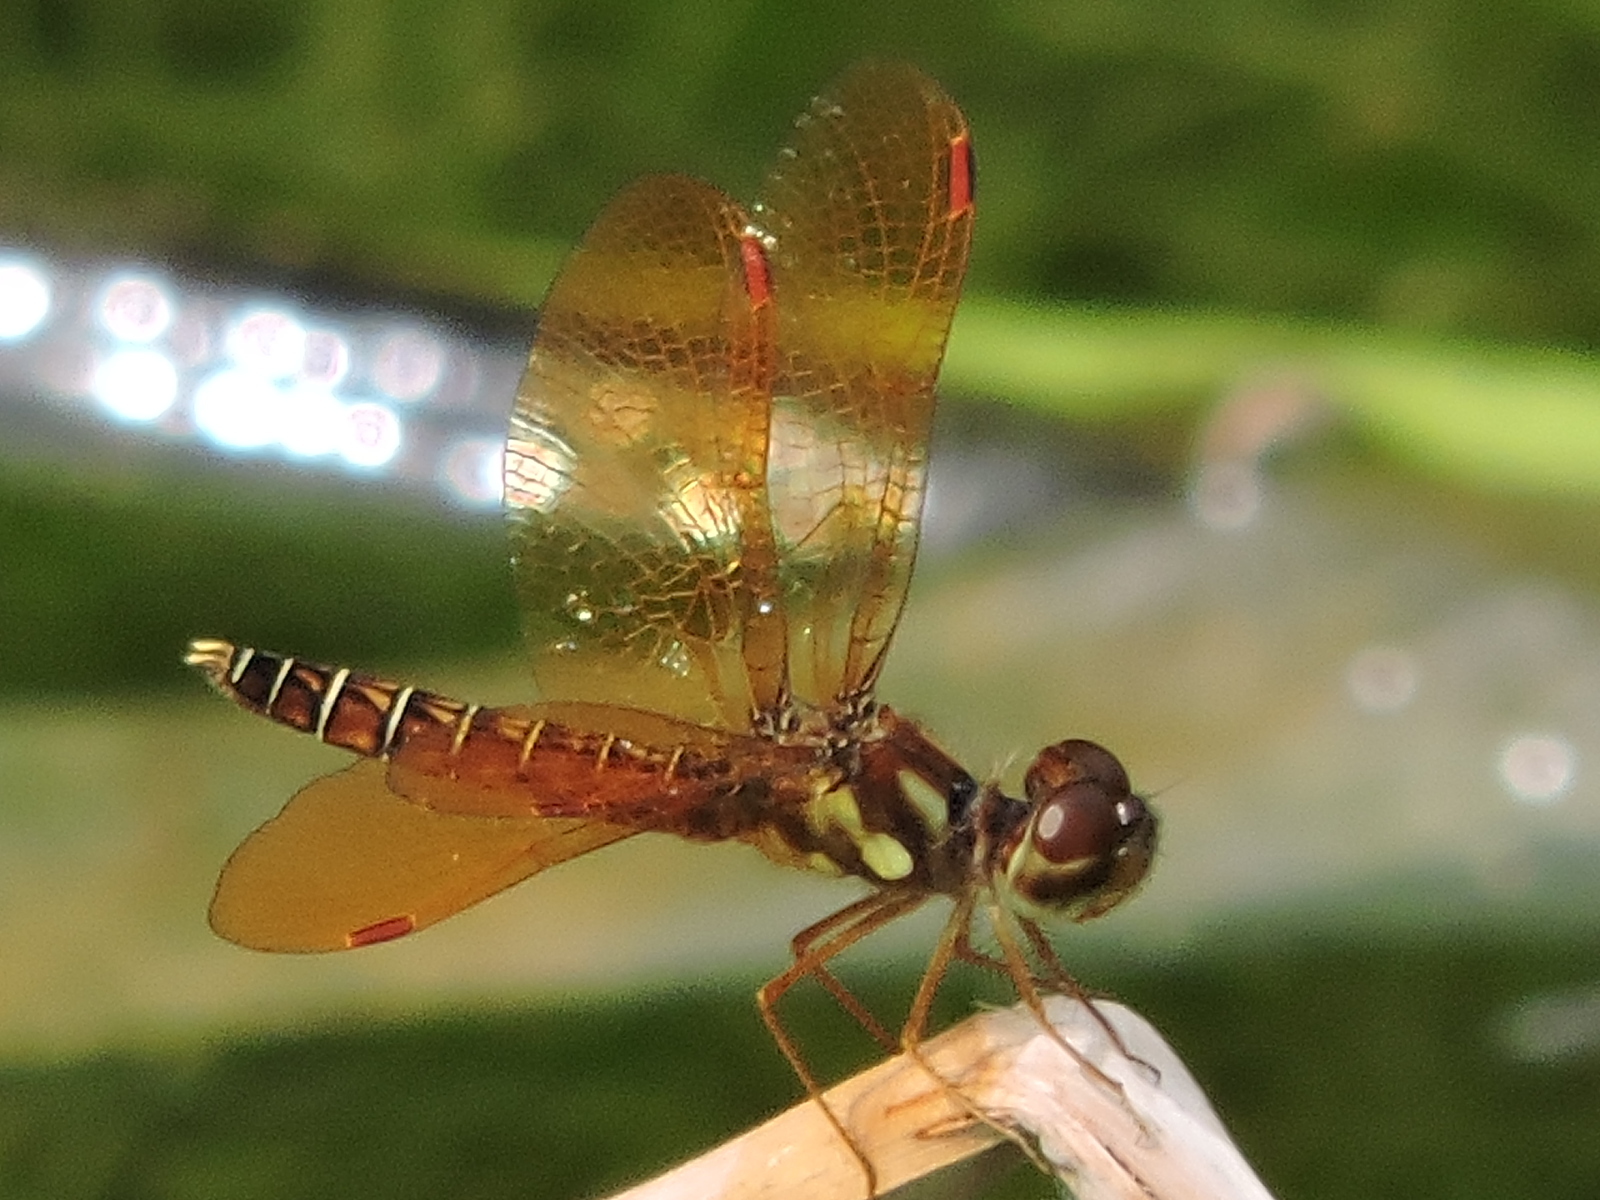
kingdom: Animalia
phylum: Arthropoda
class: Insecta
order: Odonata
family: Libellulidae
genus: Perithemis
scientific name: Perithemis tenera
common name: Eastern amberwing
